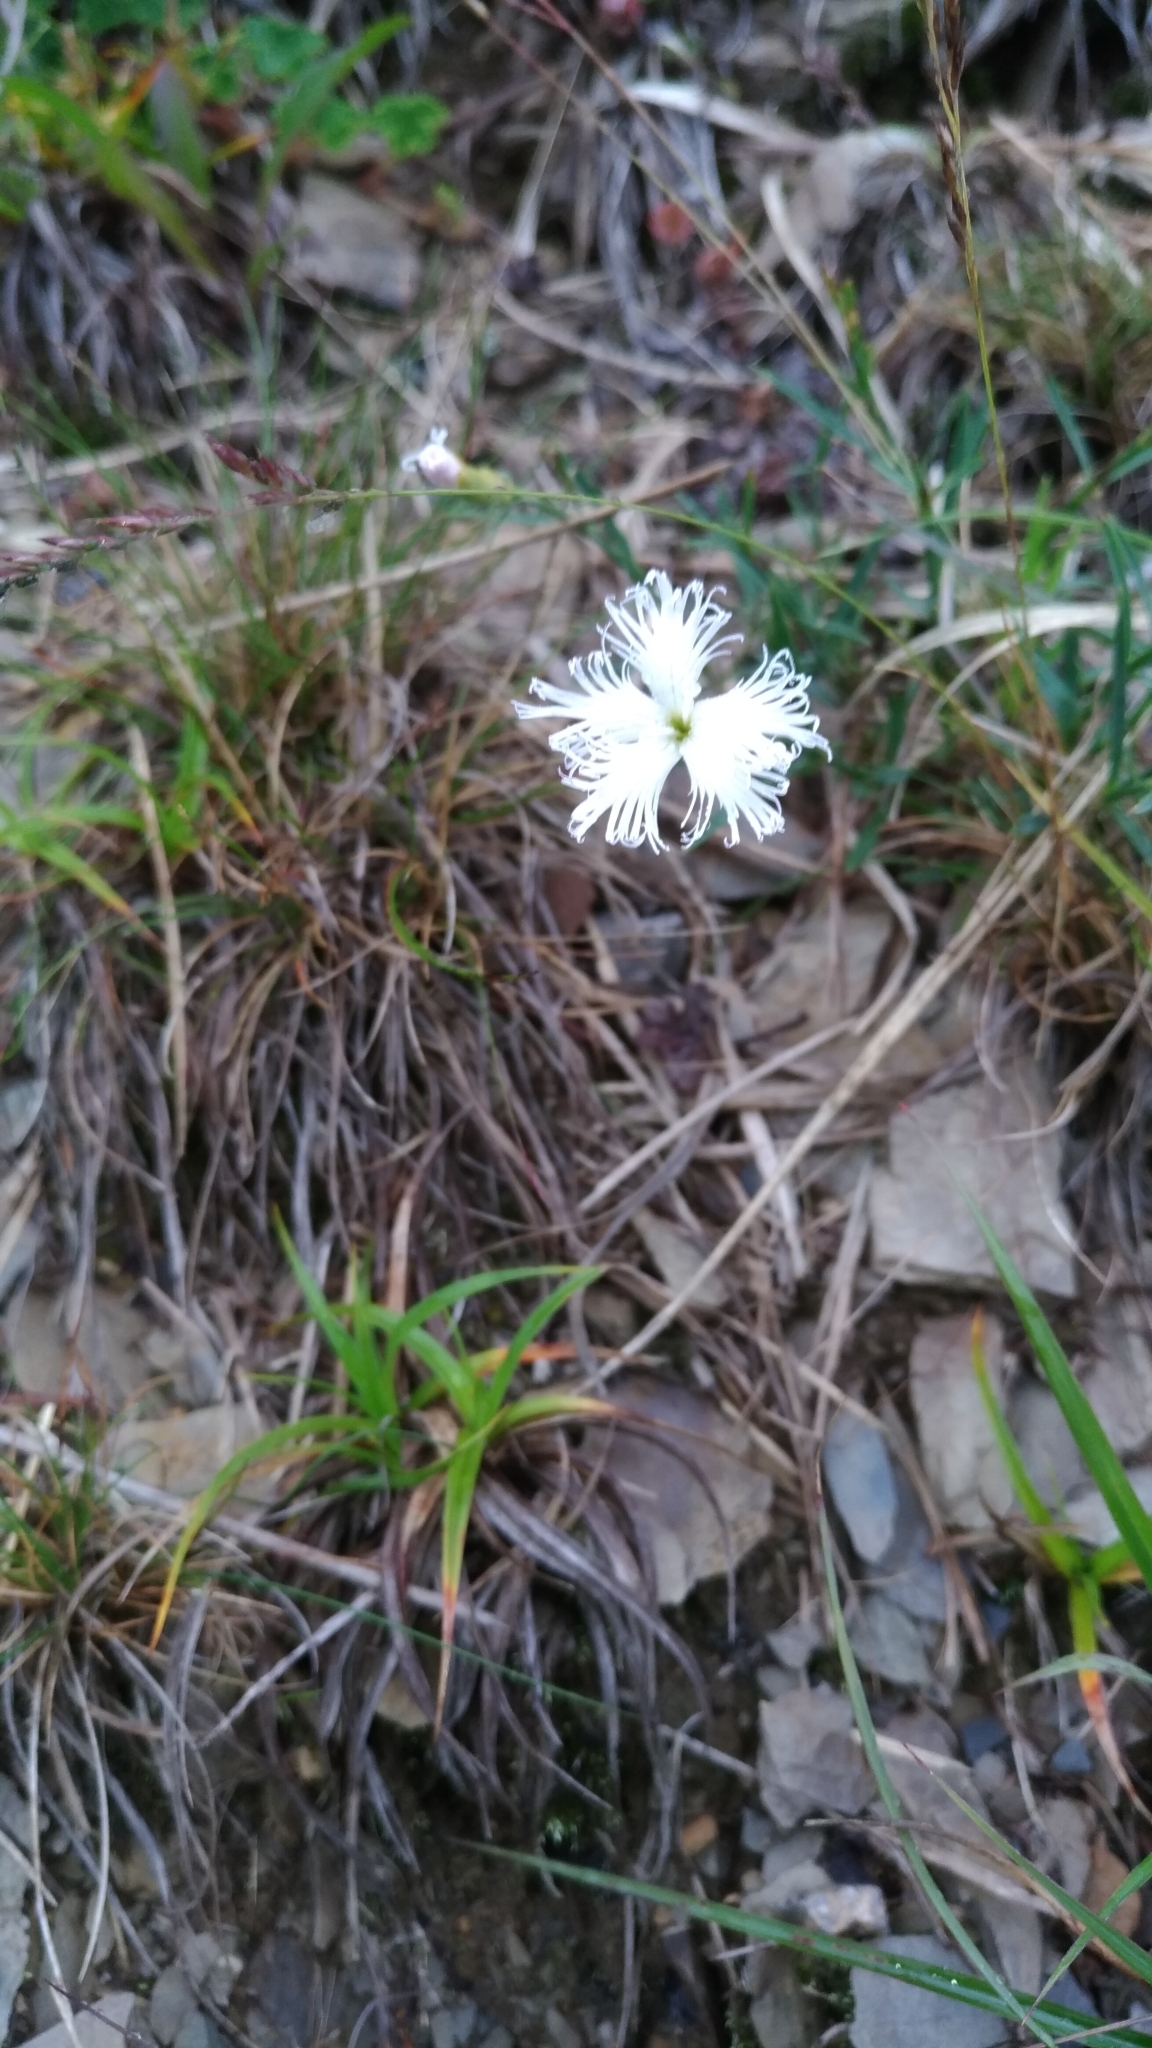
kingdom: Plantae
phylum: Tracheophyta
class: Magnoliopsida
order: Caryophyllales
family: Caryophyllaceae
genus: Dianthus
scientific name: Dianthus pygmaeus
